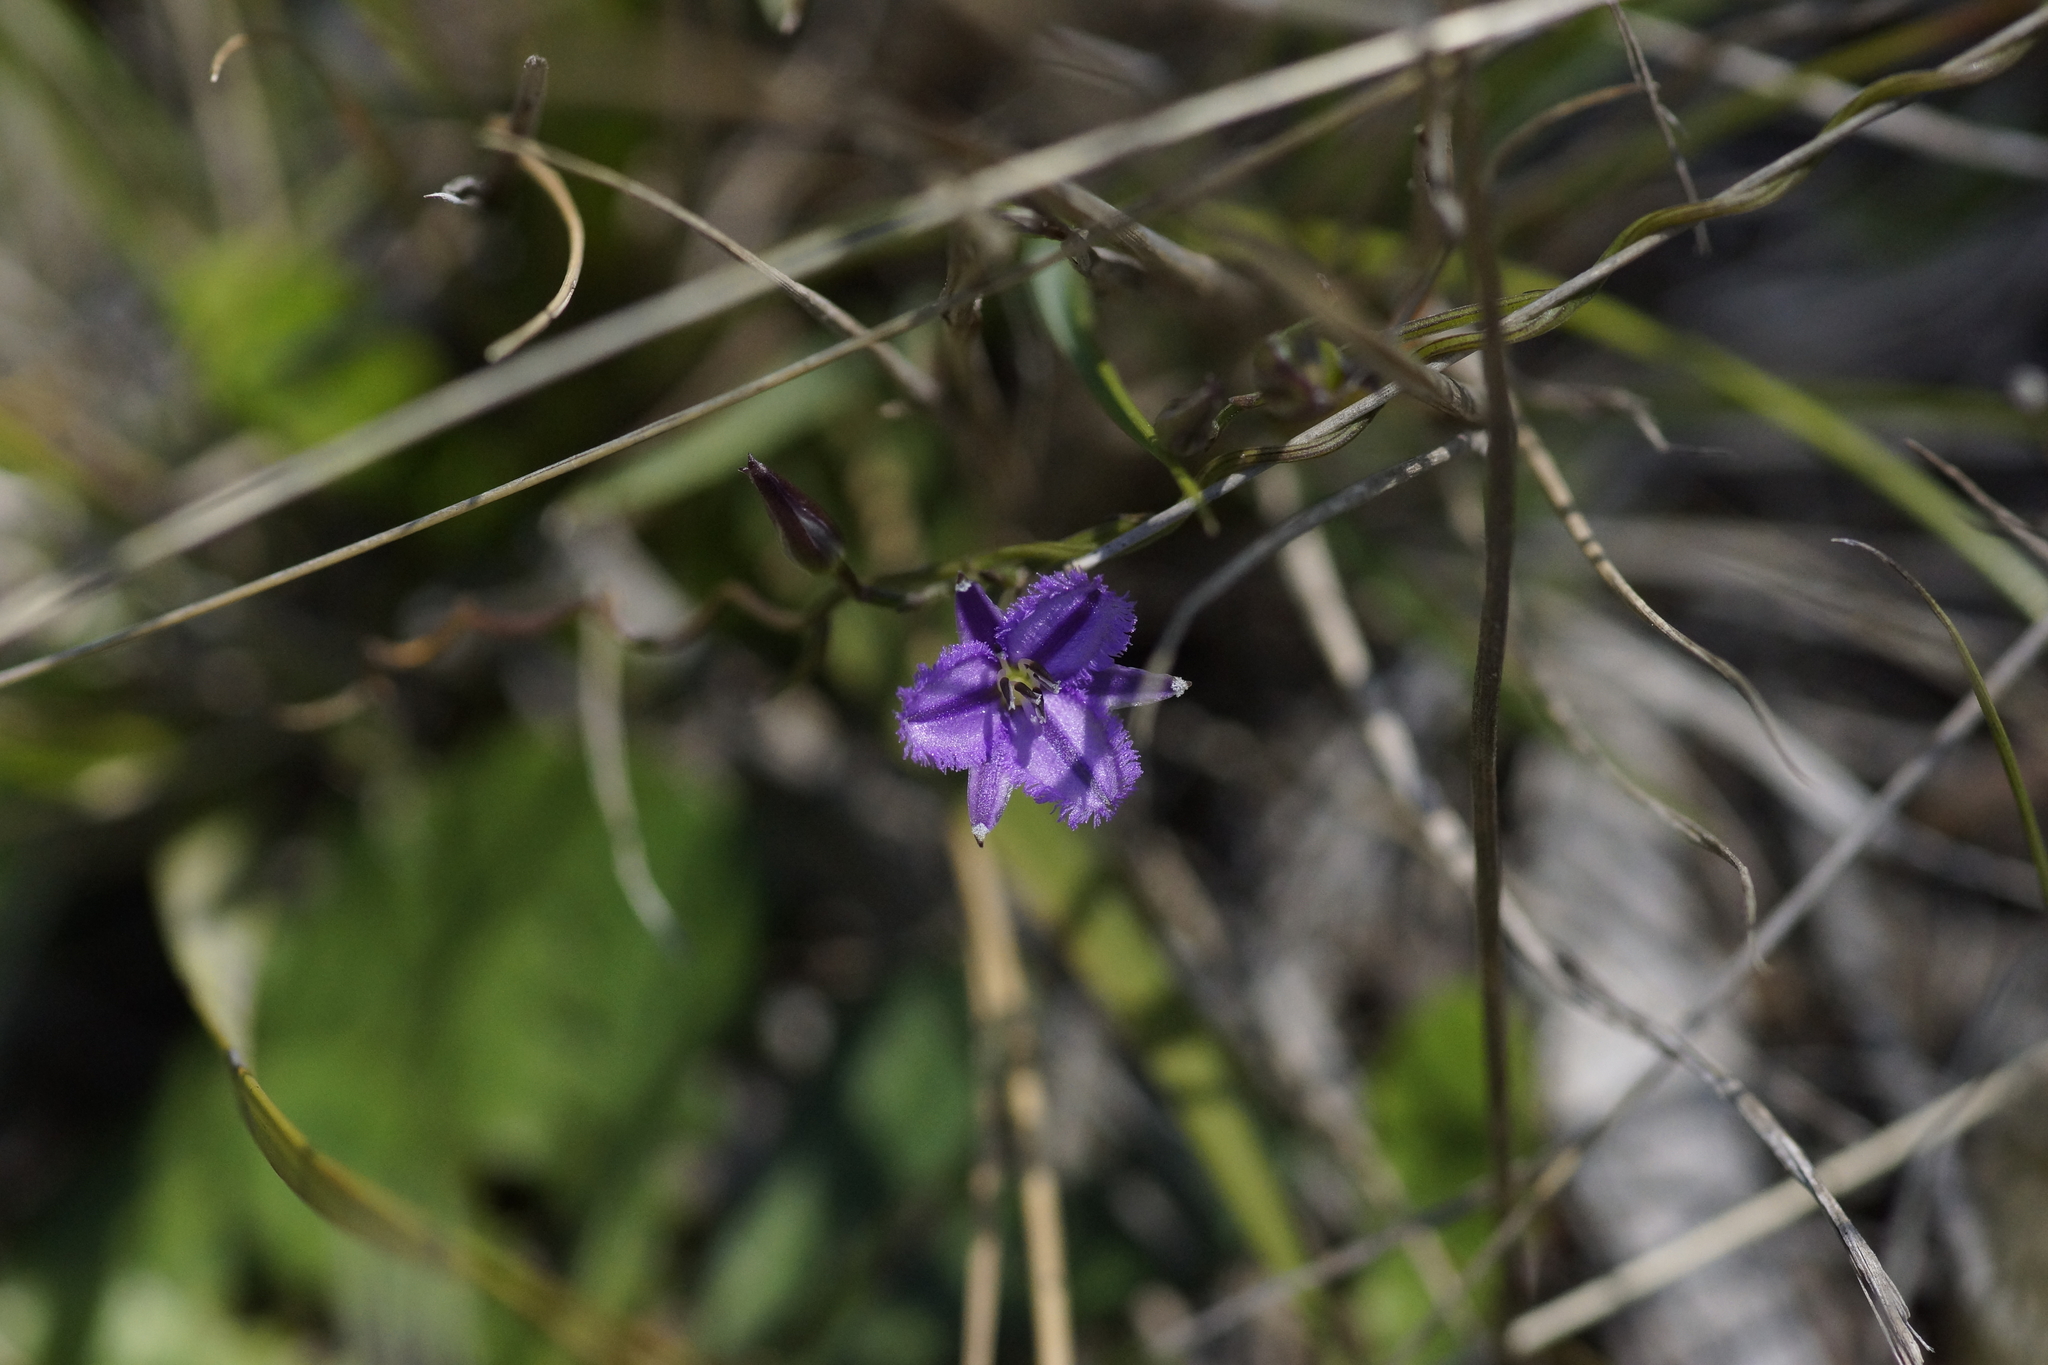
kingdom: Plantae
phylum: Tracheophyta
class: Liliopsida
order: Asparagales
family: Asparagaceae
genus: Thysanotus
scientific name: Thysanotus patersonii
